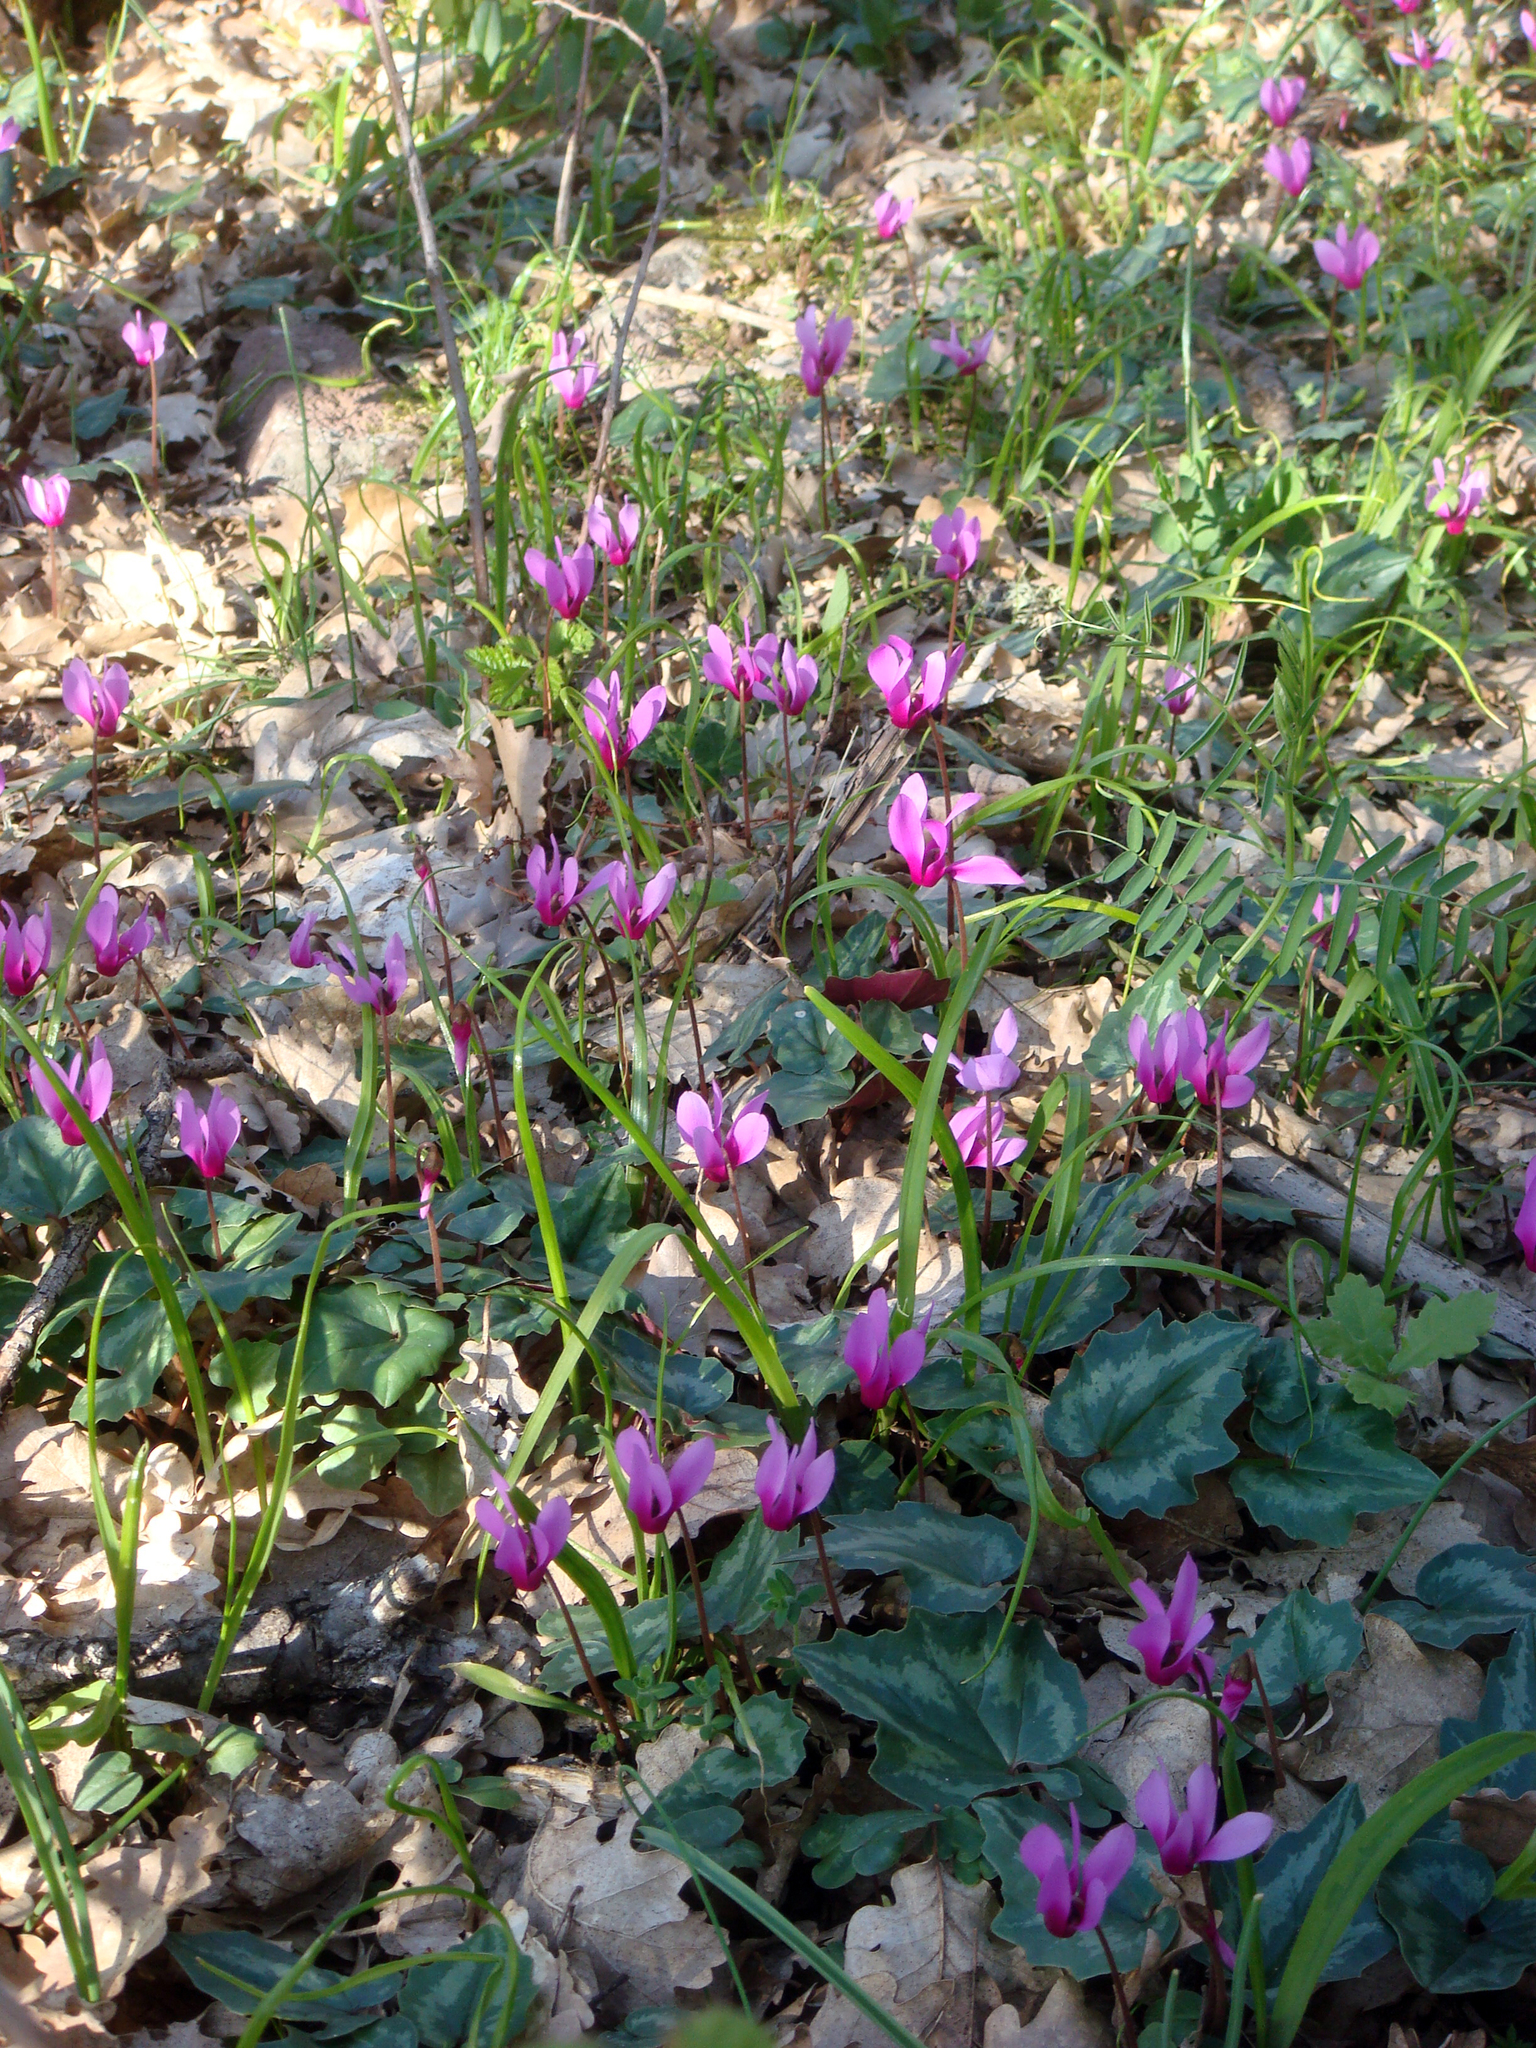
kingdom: Plantae
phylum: Tracheophyta
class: Magnoliopsida
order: Ericales
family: Primulaceae
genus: Cyclamen
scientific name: Cyclamen repandum
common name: Spring sowbread
